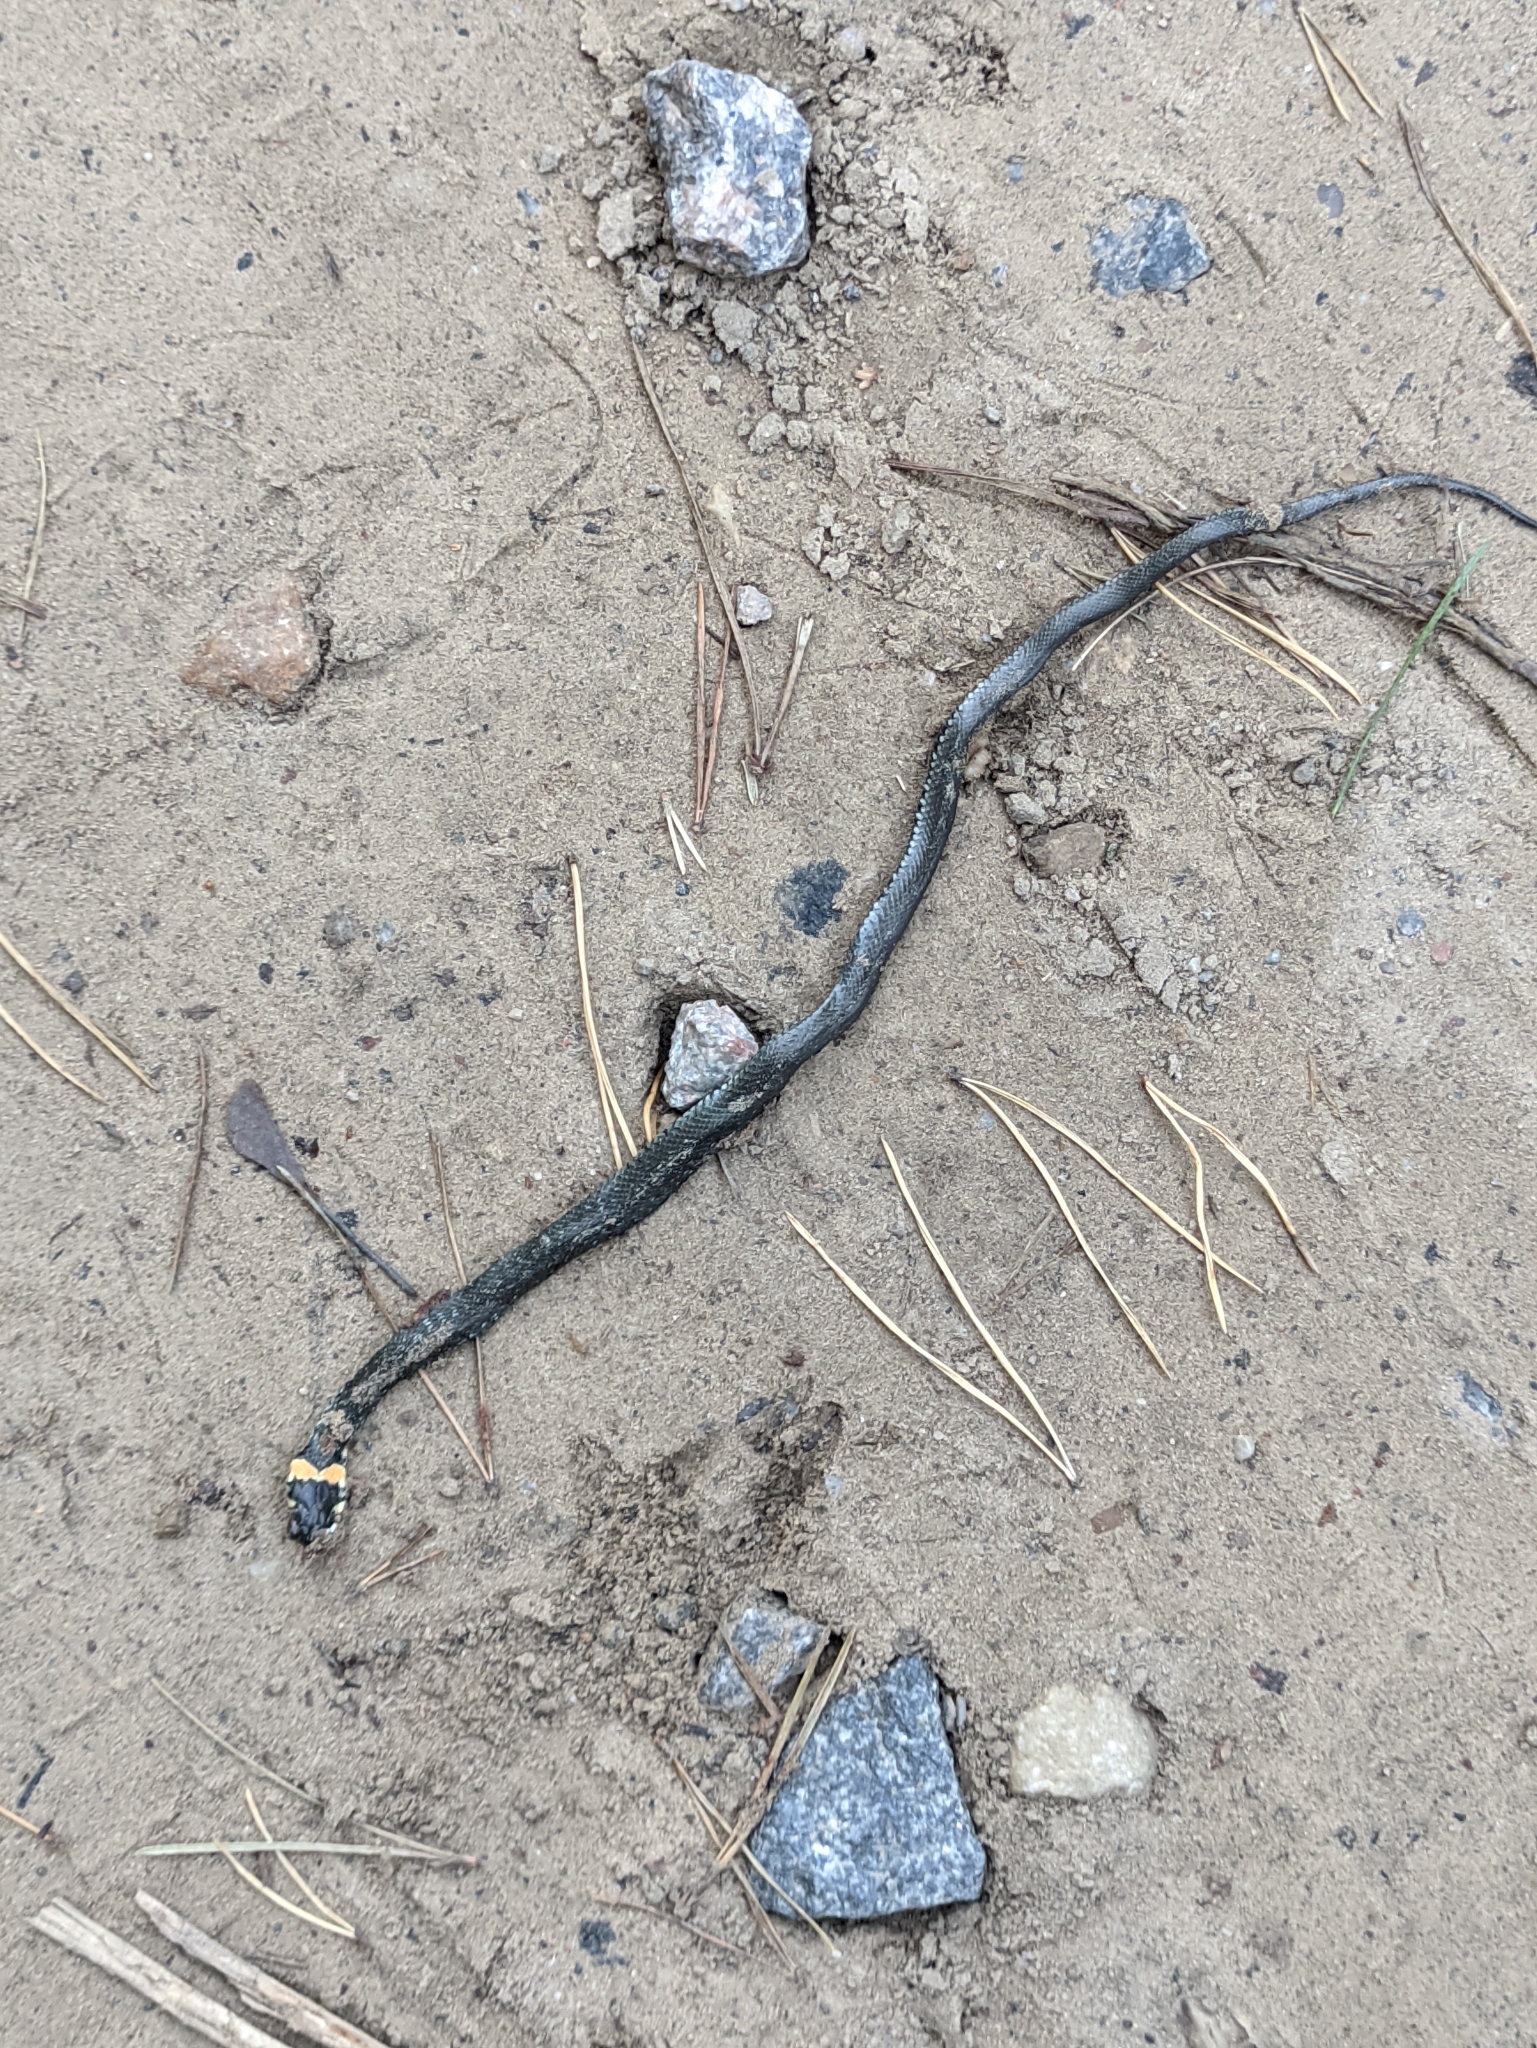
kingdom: Animalia
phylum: Chordata
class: Squamata
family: Colubridae
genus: Natrix
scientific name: Natrix natrix
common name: Grass snake
